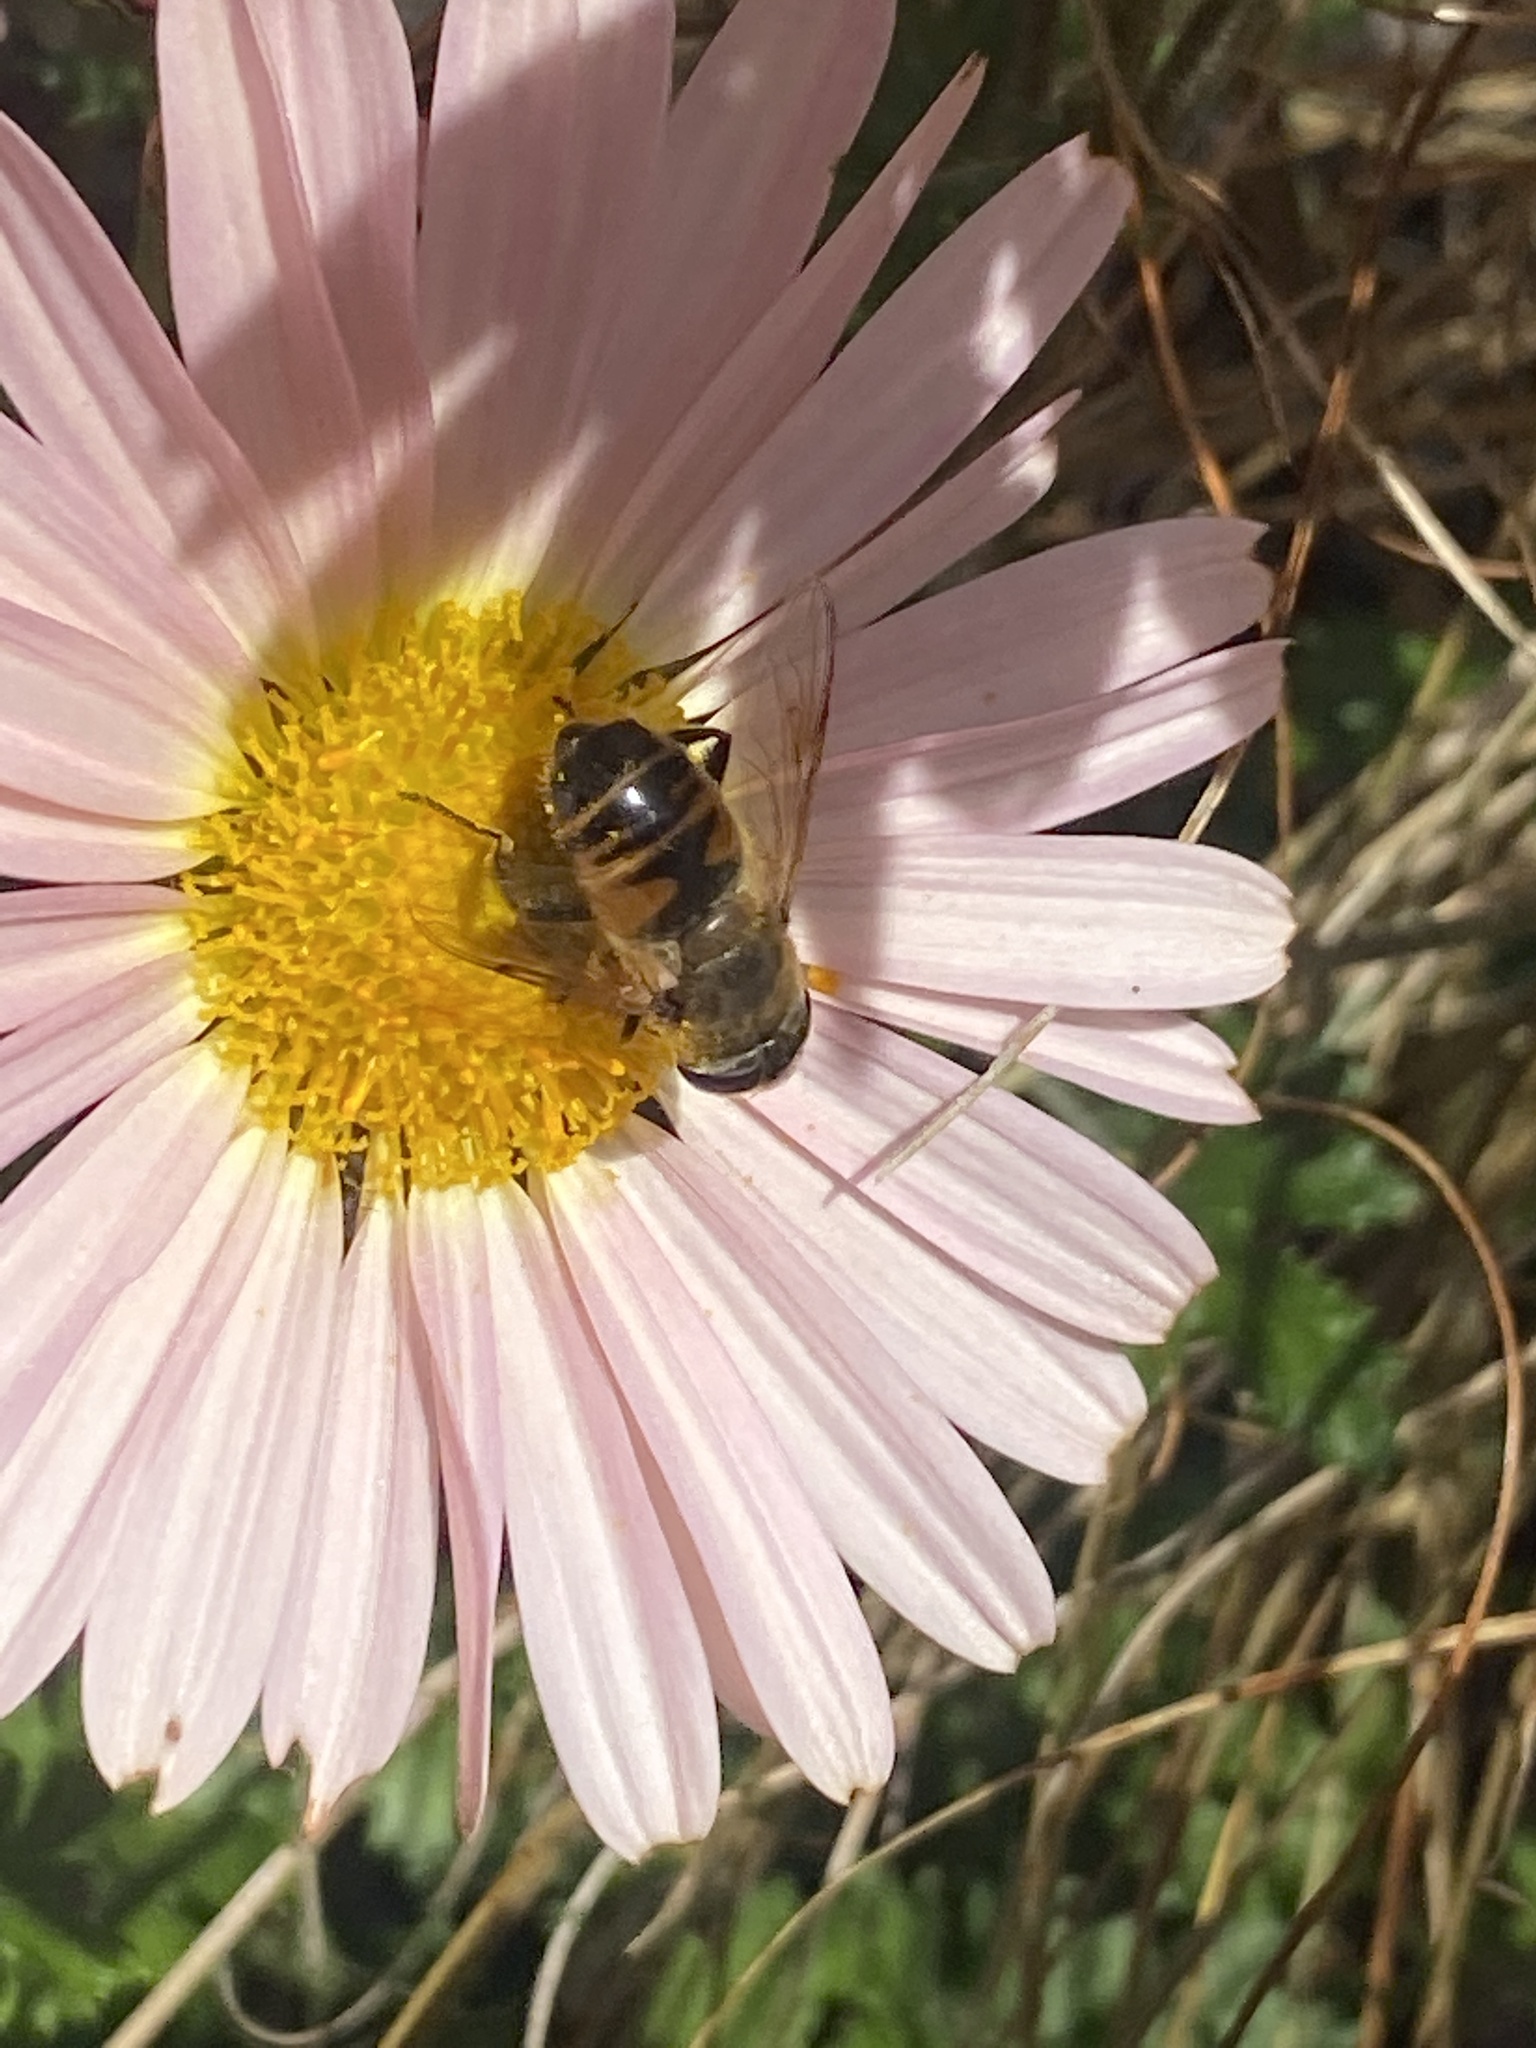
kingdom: Animalia
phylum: Arthropoda
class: Insecta
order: Diptera
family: Syrphidae
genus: Eristalis
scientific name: Eristalis tenax
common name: Drone fly
